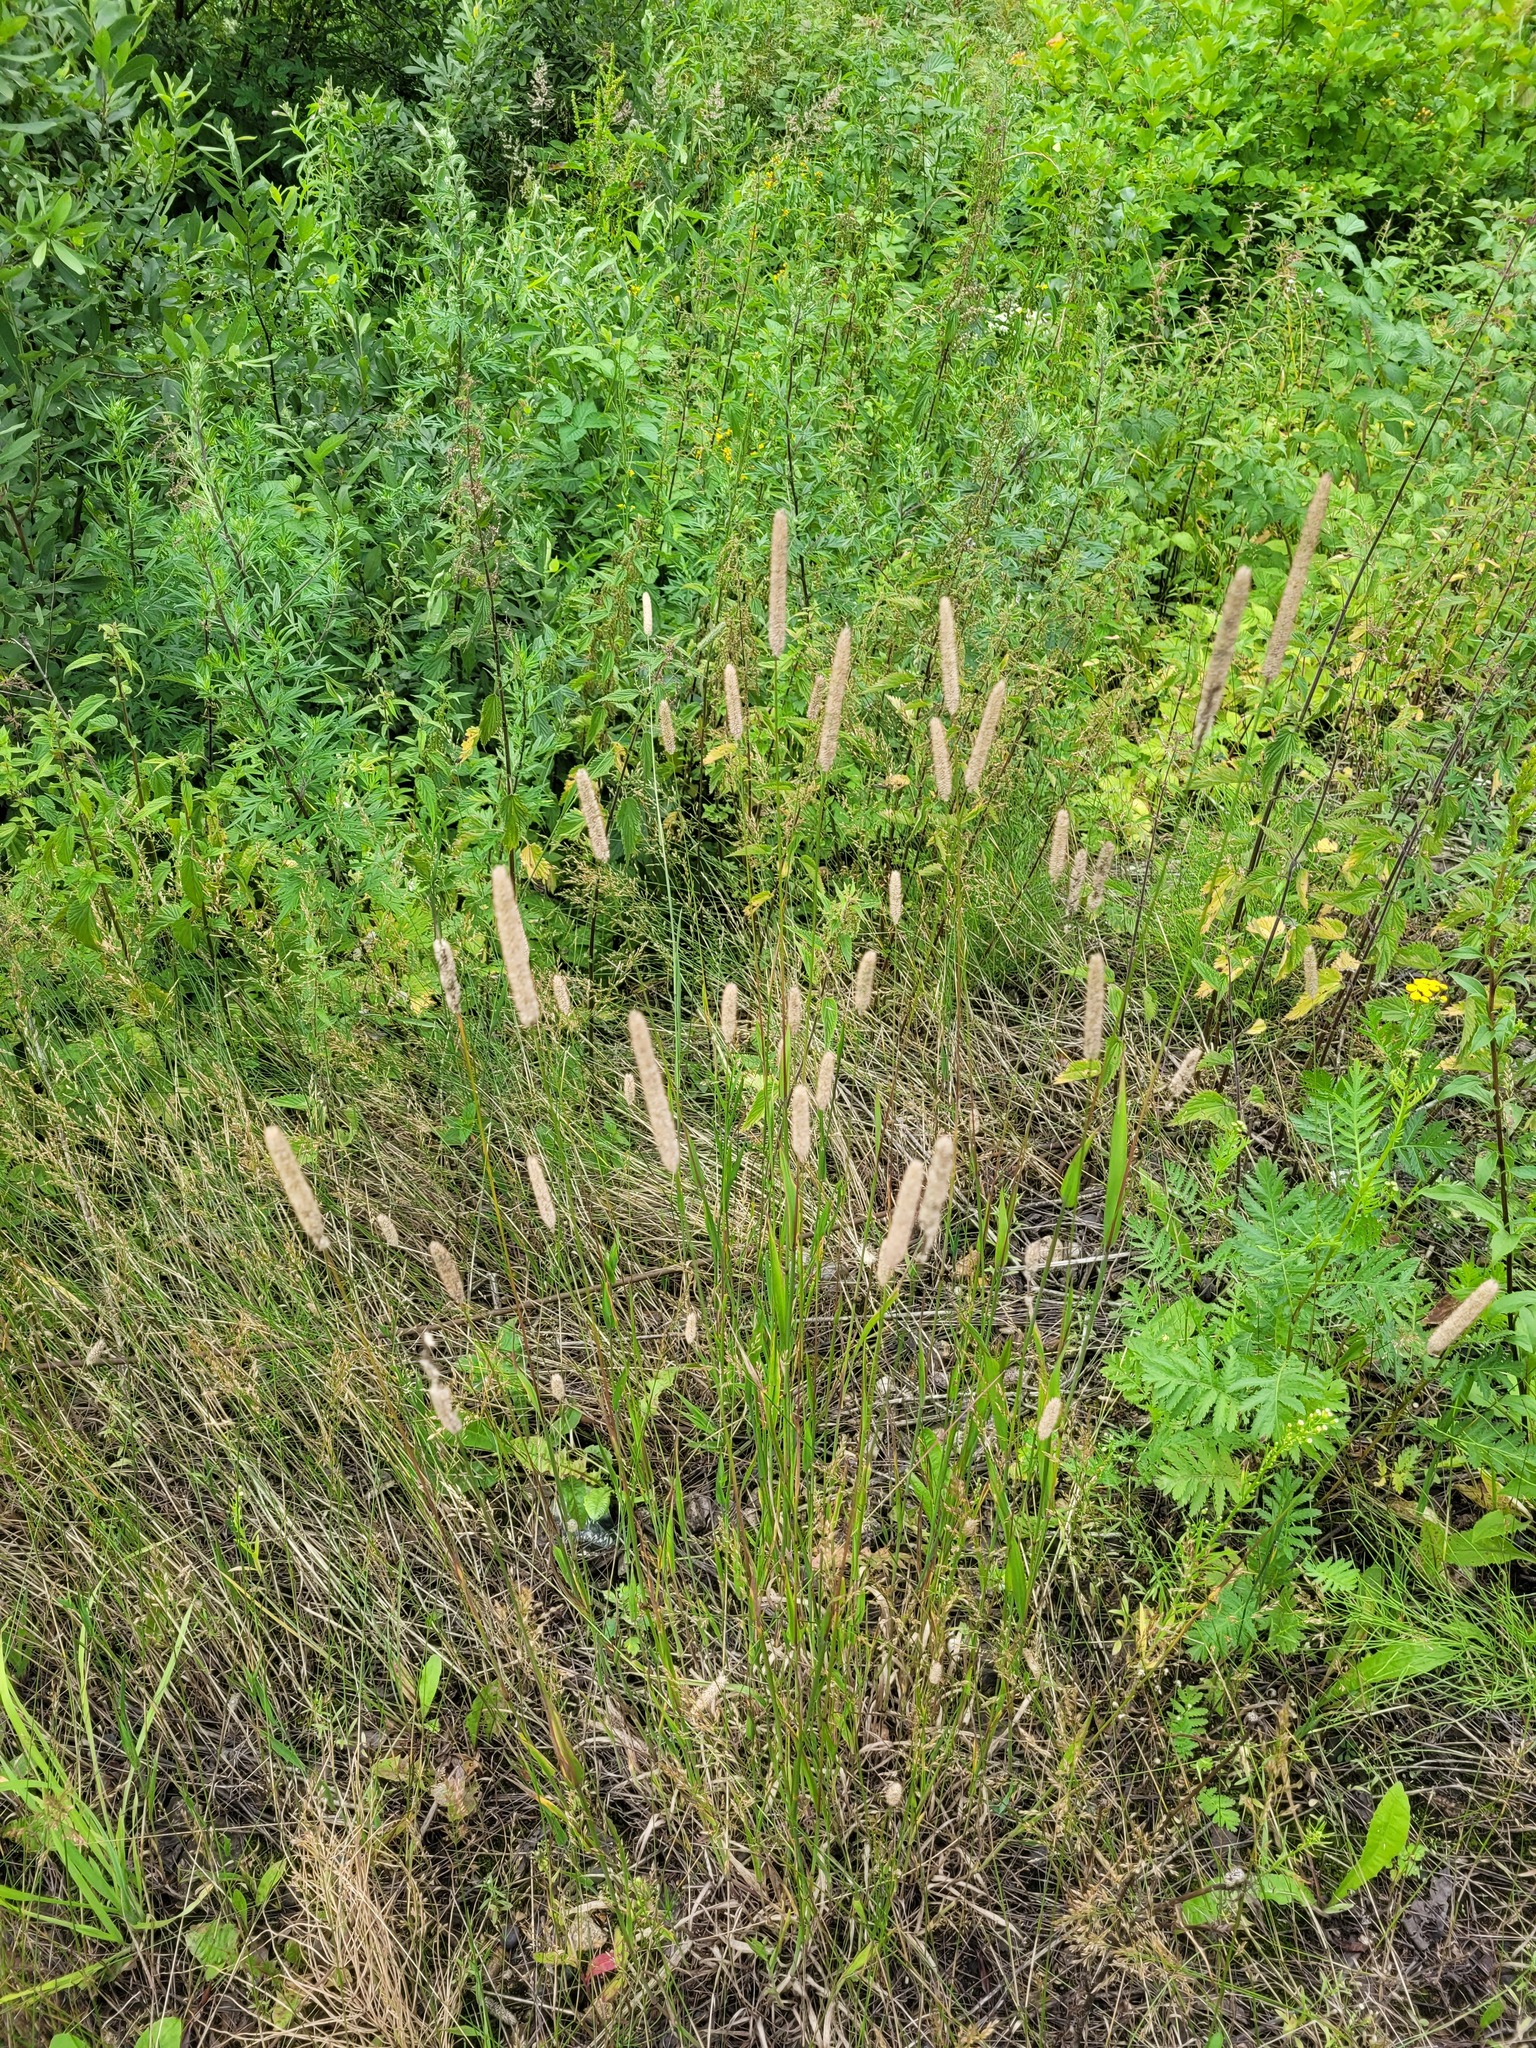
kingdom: Plantae
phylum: Tracheophyta
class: Liliopsida
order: Poales
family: Poaceae
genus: Phleum
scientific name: Phleum pratense
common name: Timothy grass
